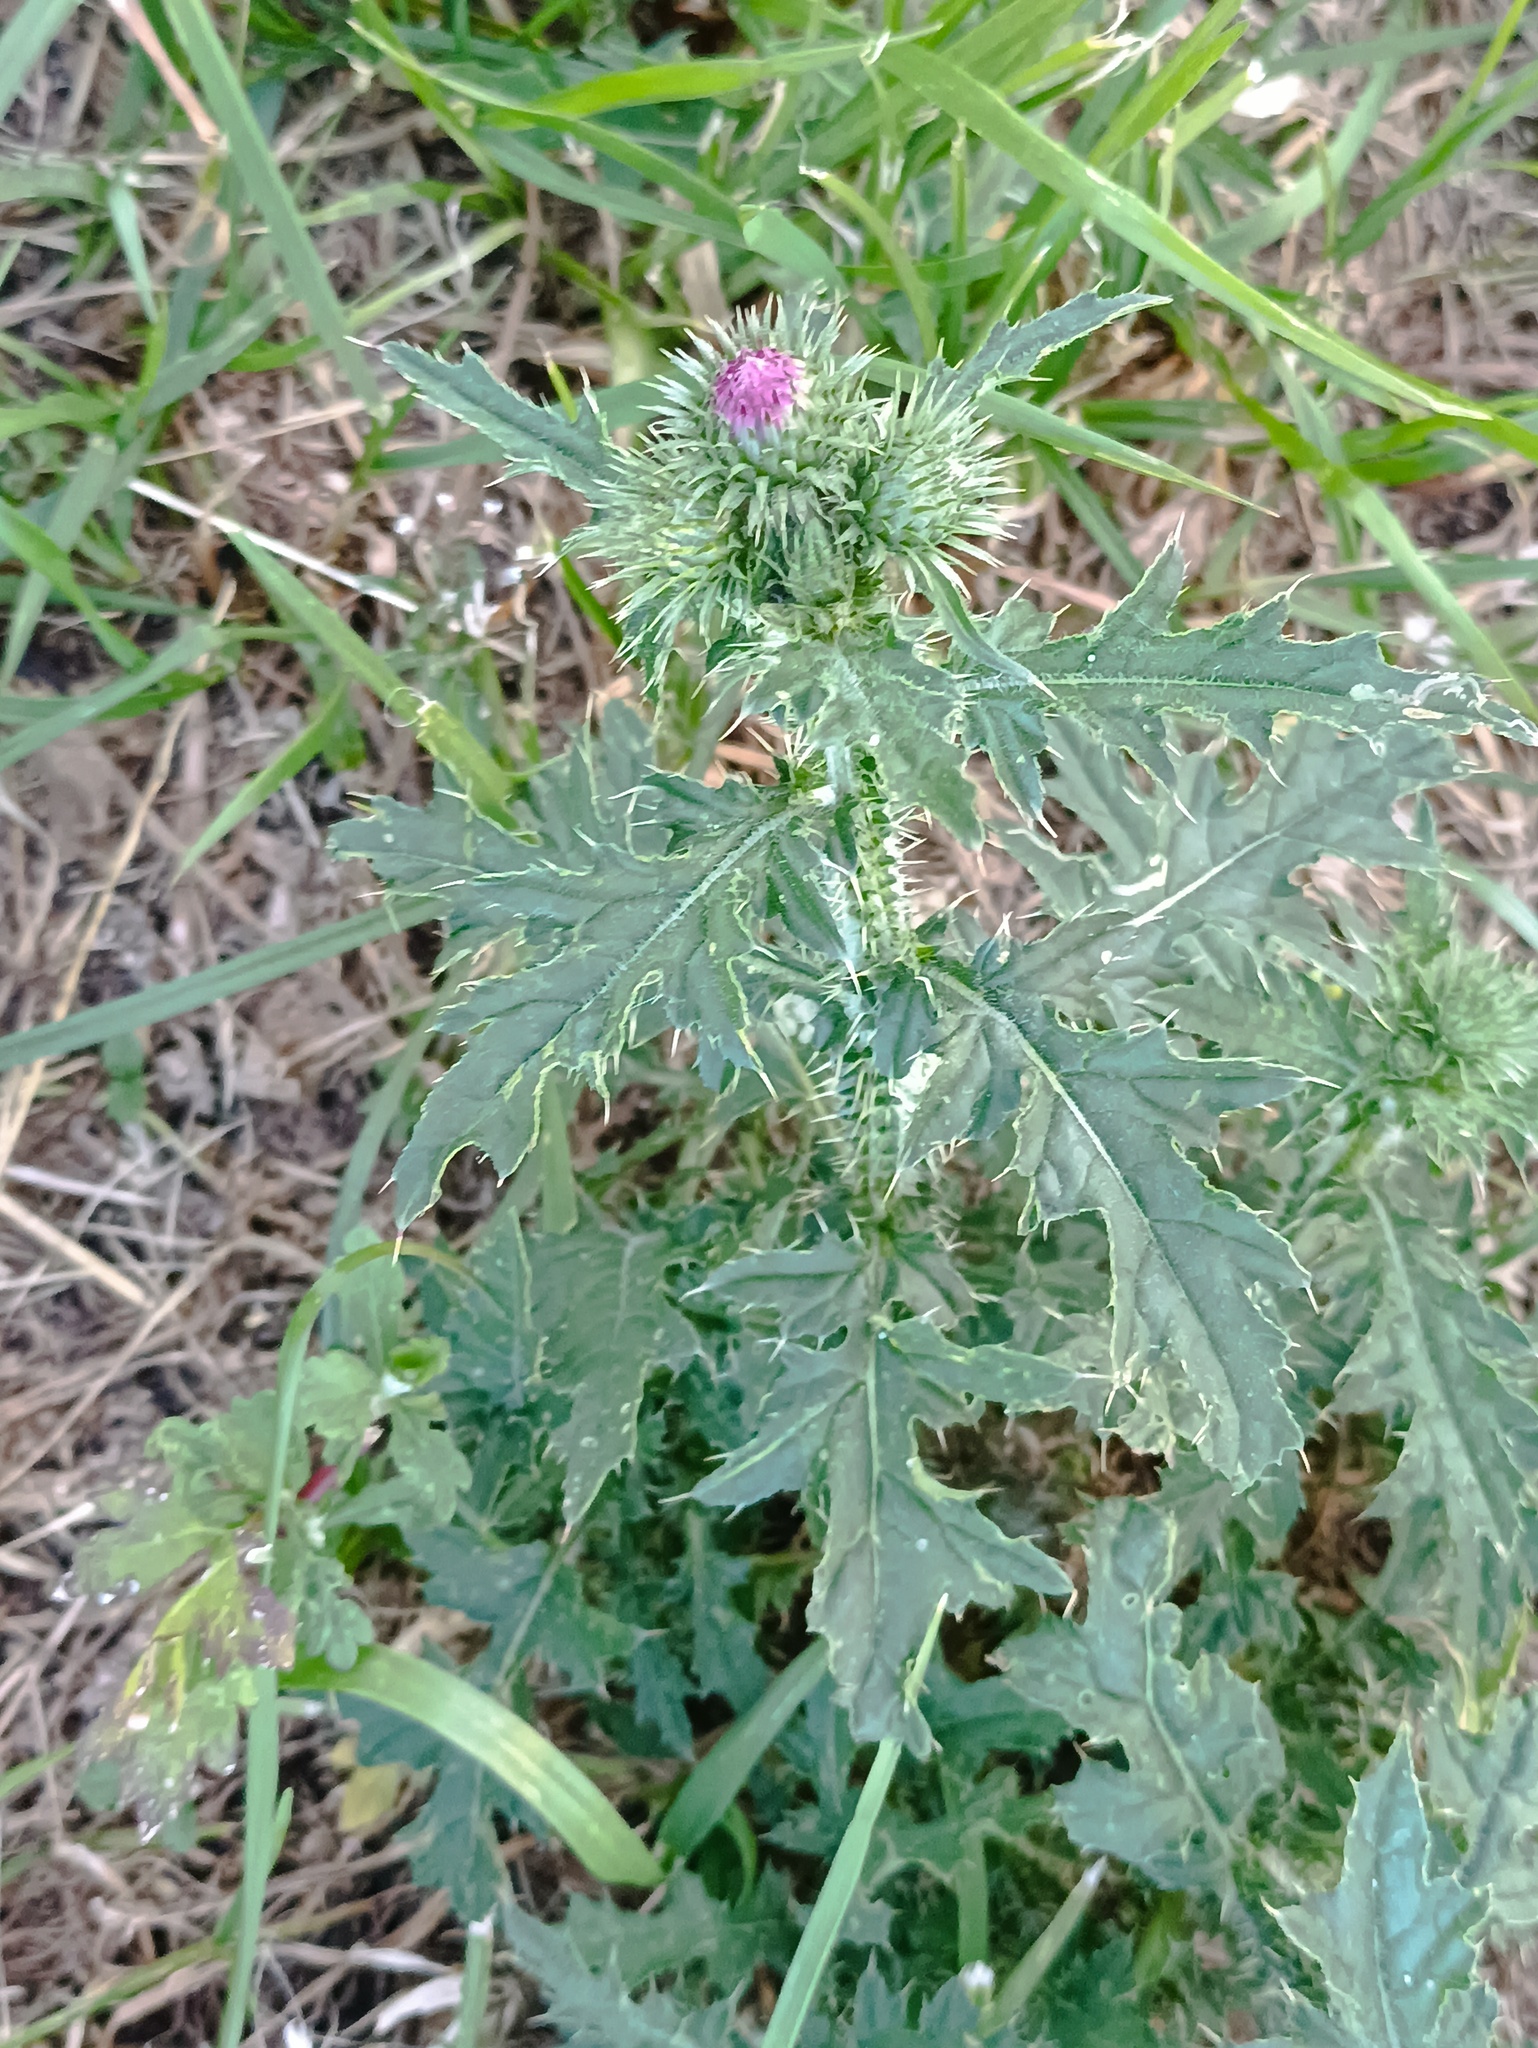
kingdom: Plantae
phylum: Tracheophyta
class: Magnoliopsida
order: Asterales
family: Asteraceae
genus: Carduus
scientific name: Carduus crispus
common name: Welted thistle
